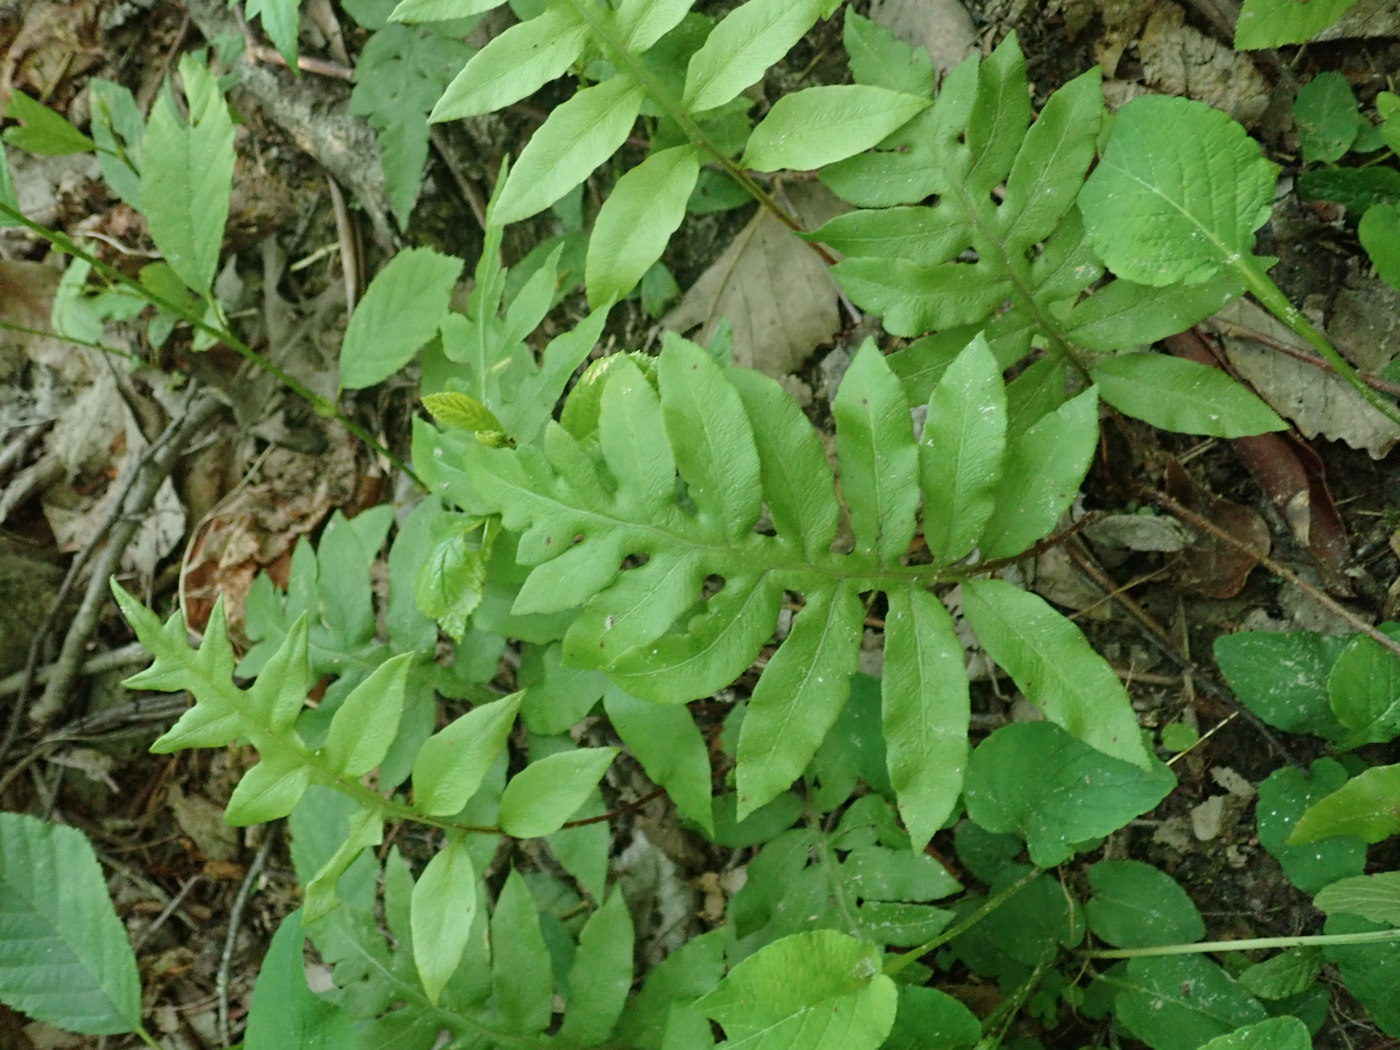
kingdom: Plantae
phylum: Tracheophyta
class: Polypodiopsida
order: Polypodiales
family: Blechnaceae
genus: Lorinseria
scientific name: Lorinseria areolata
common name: Dwarf chain fern
